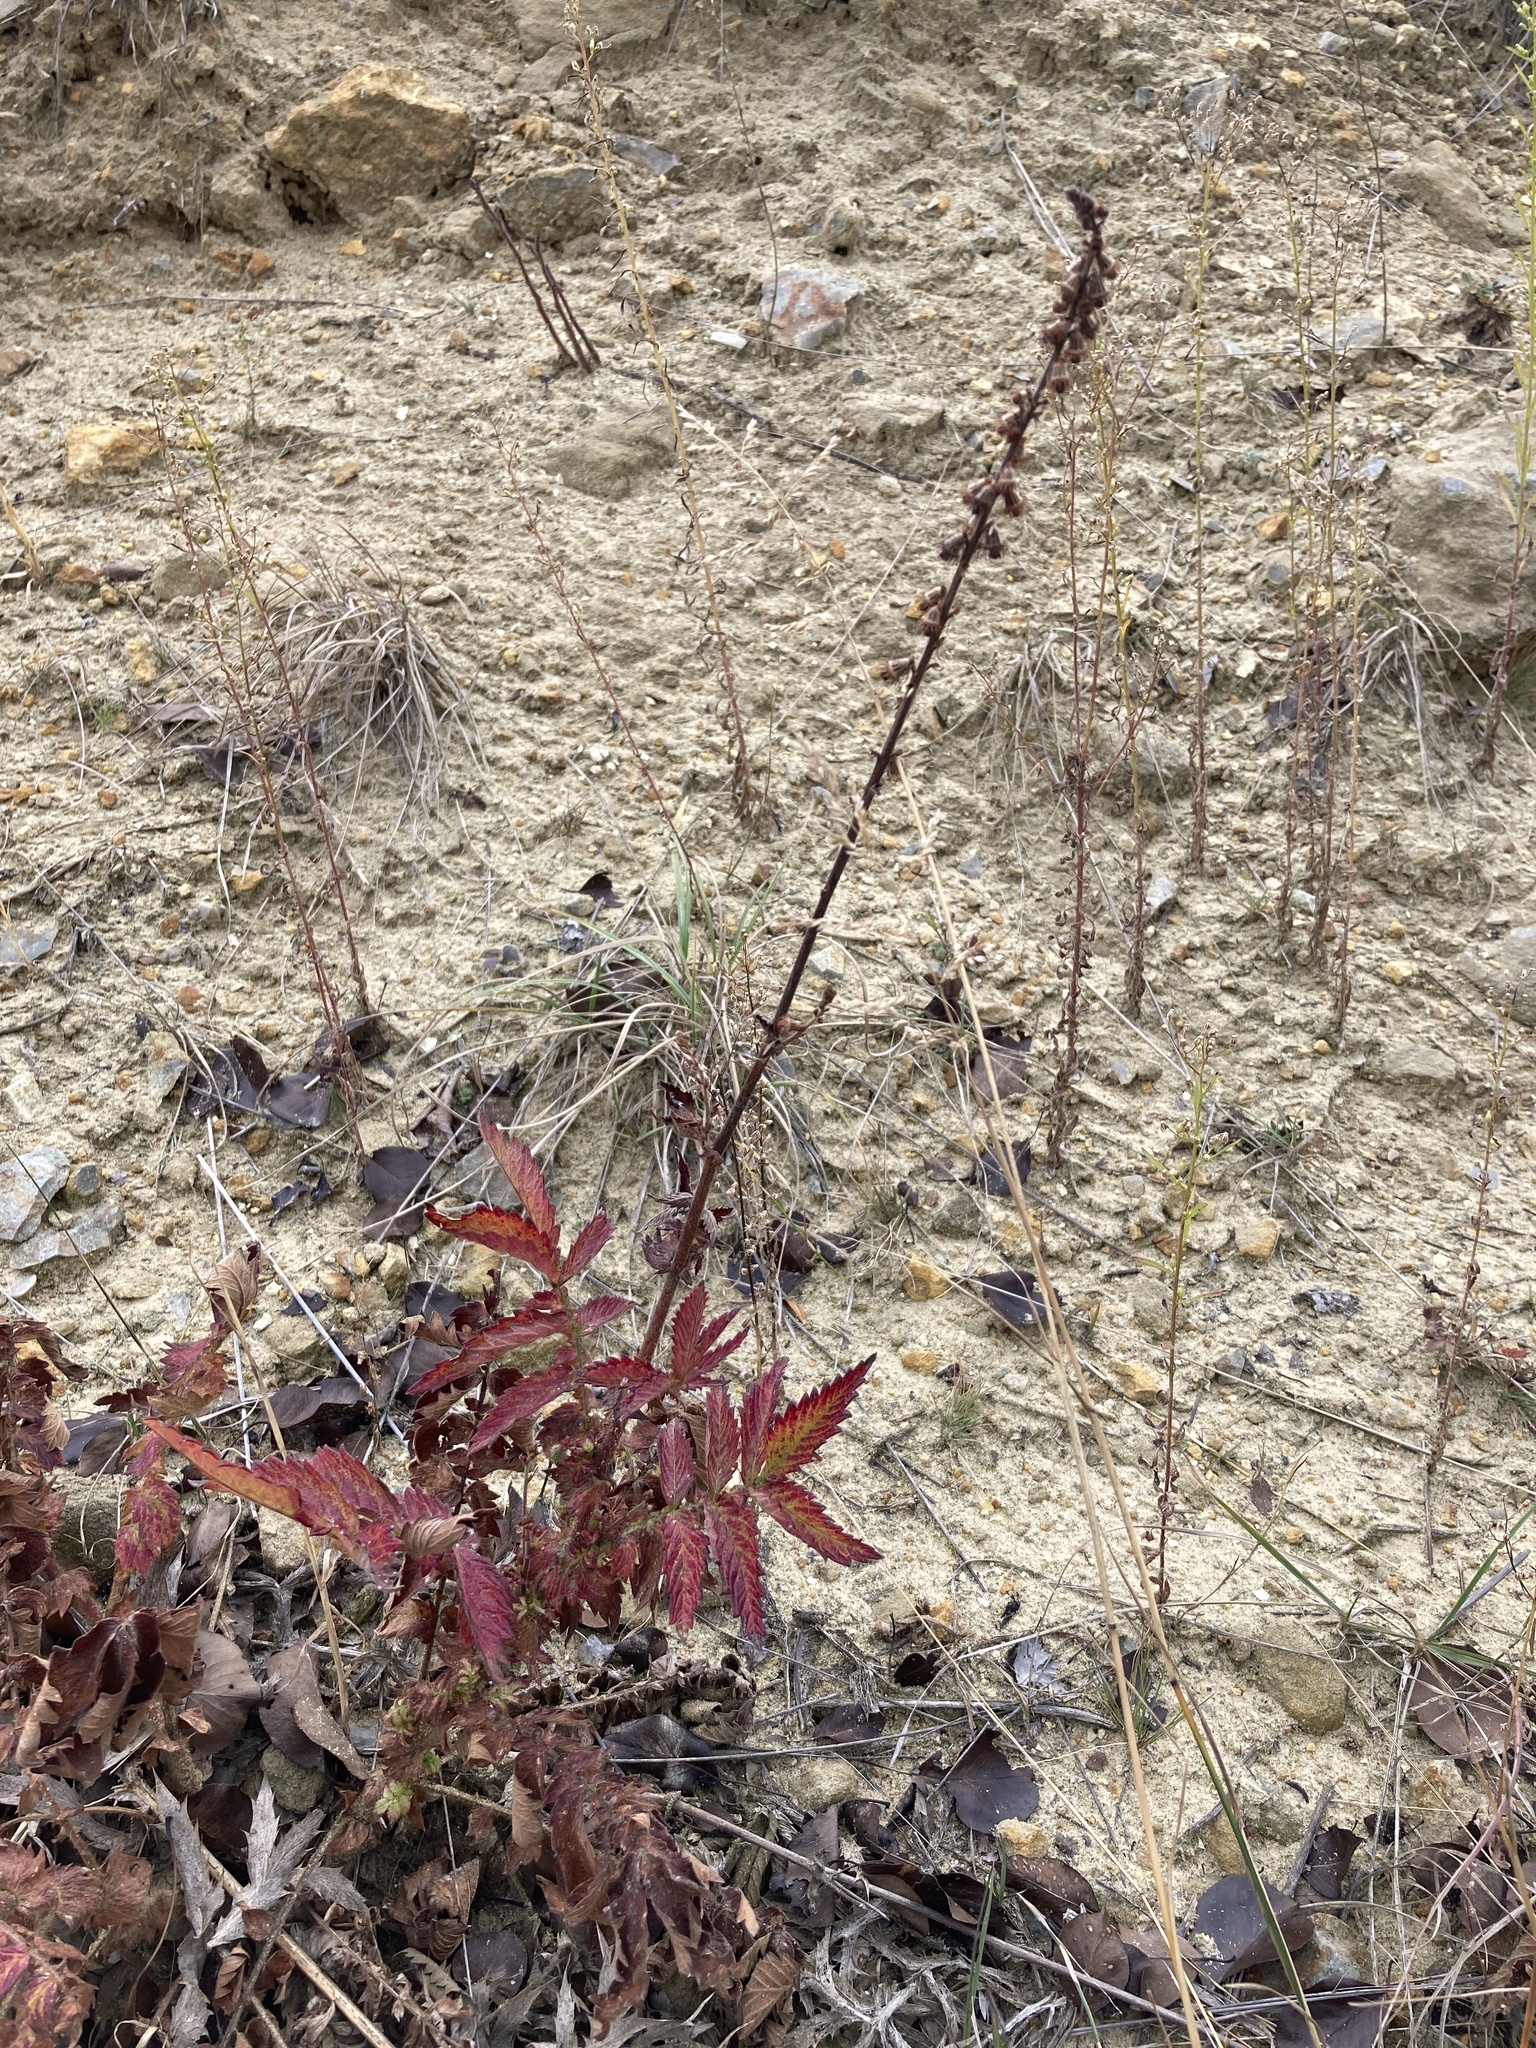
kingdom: Plantae
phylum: Tracheophyta
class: Magnoliopsida
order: Rosales
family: Rosaceae
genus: Agrimonia
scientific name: Agrimonia eupatoria
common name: Agrimony
